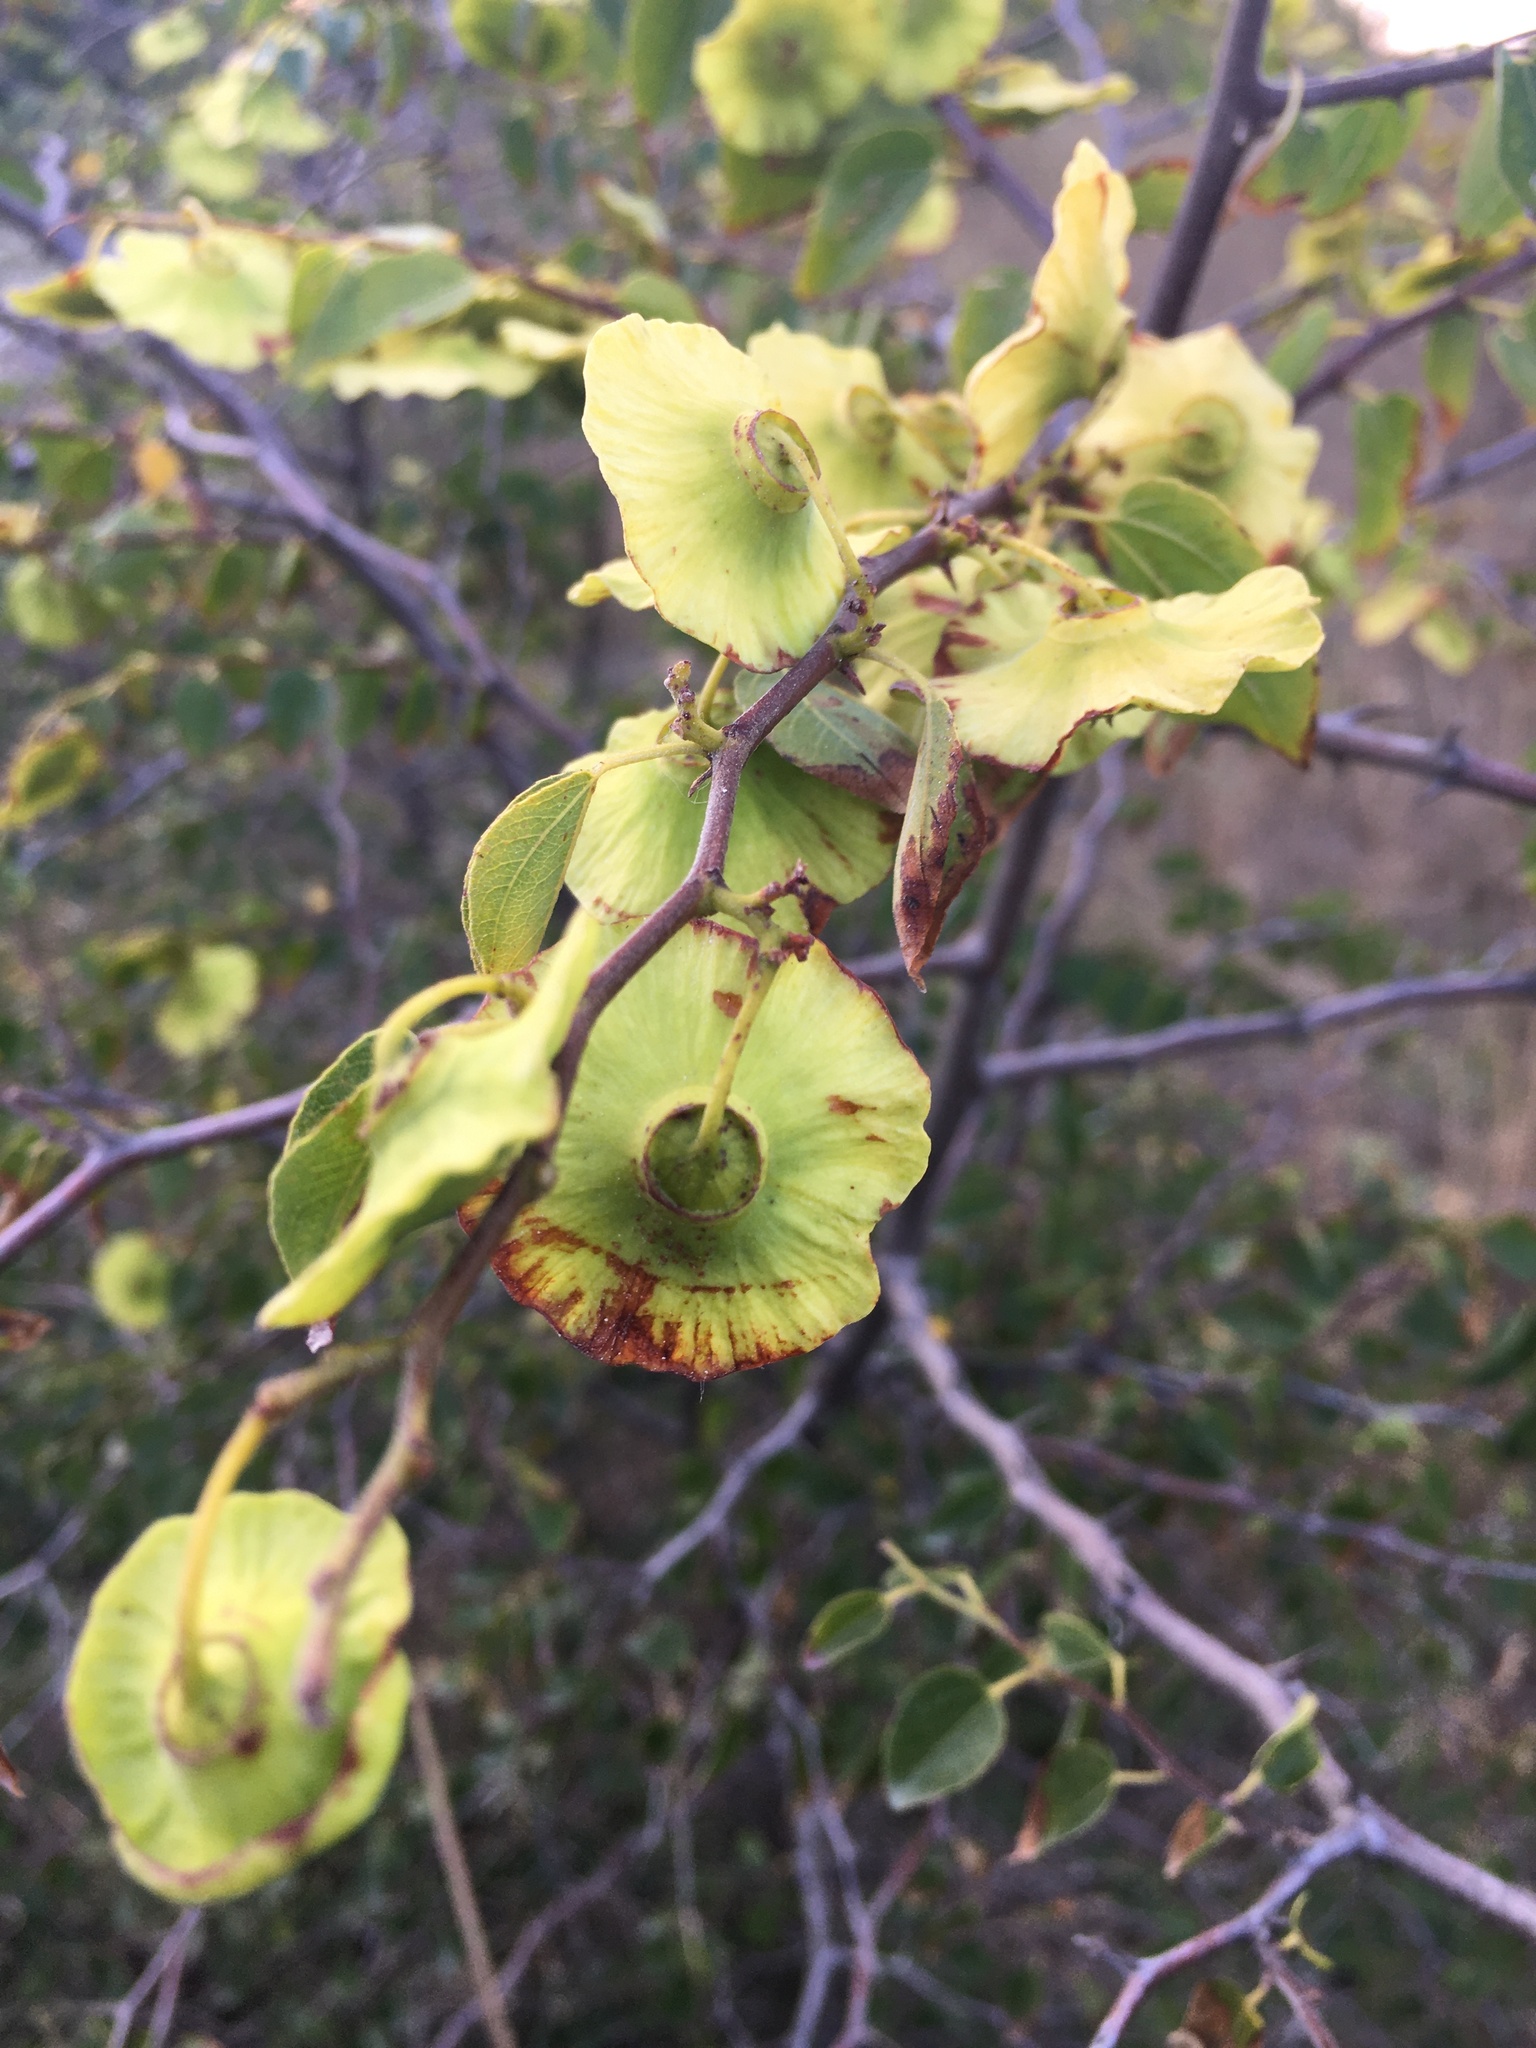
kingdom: Plantae
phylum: Tracheophyta
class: Magnoliopsida
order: Rosales
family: Rhamnaceae
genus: Paliurus
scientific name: Paliurus spina-christi
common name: Jeruselem thorn
